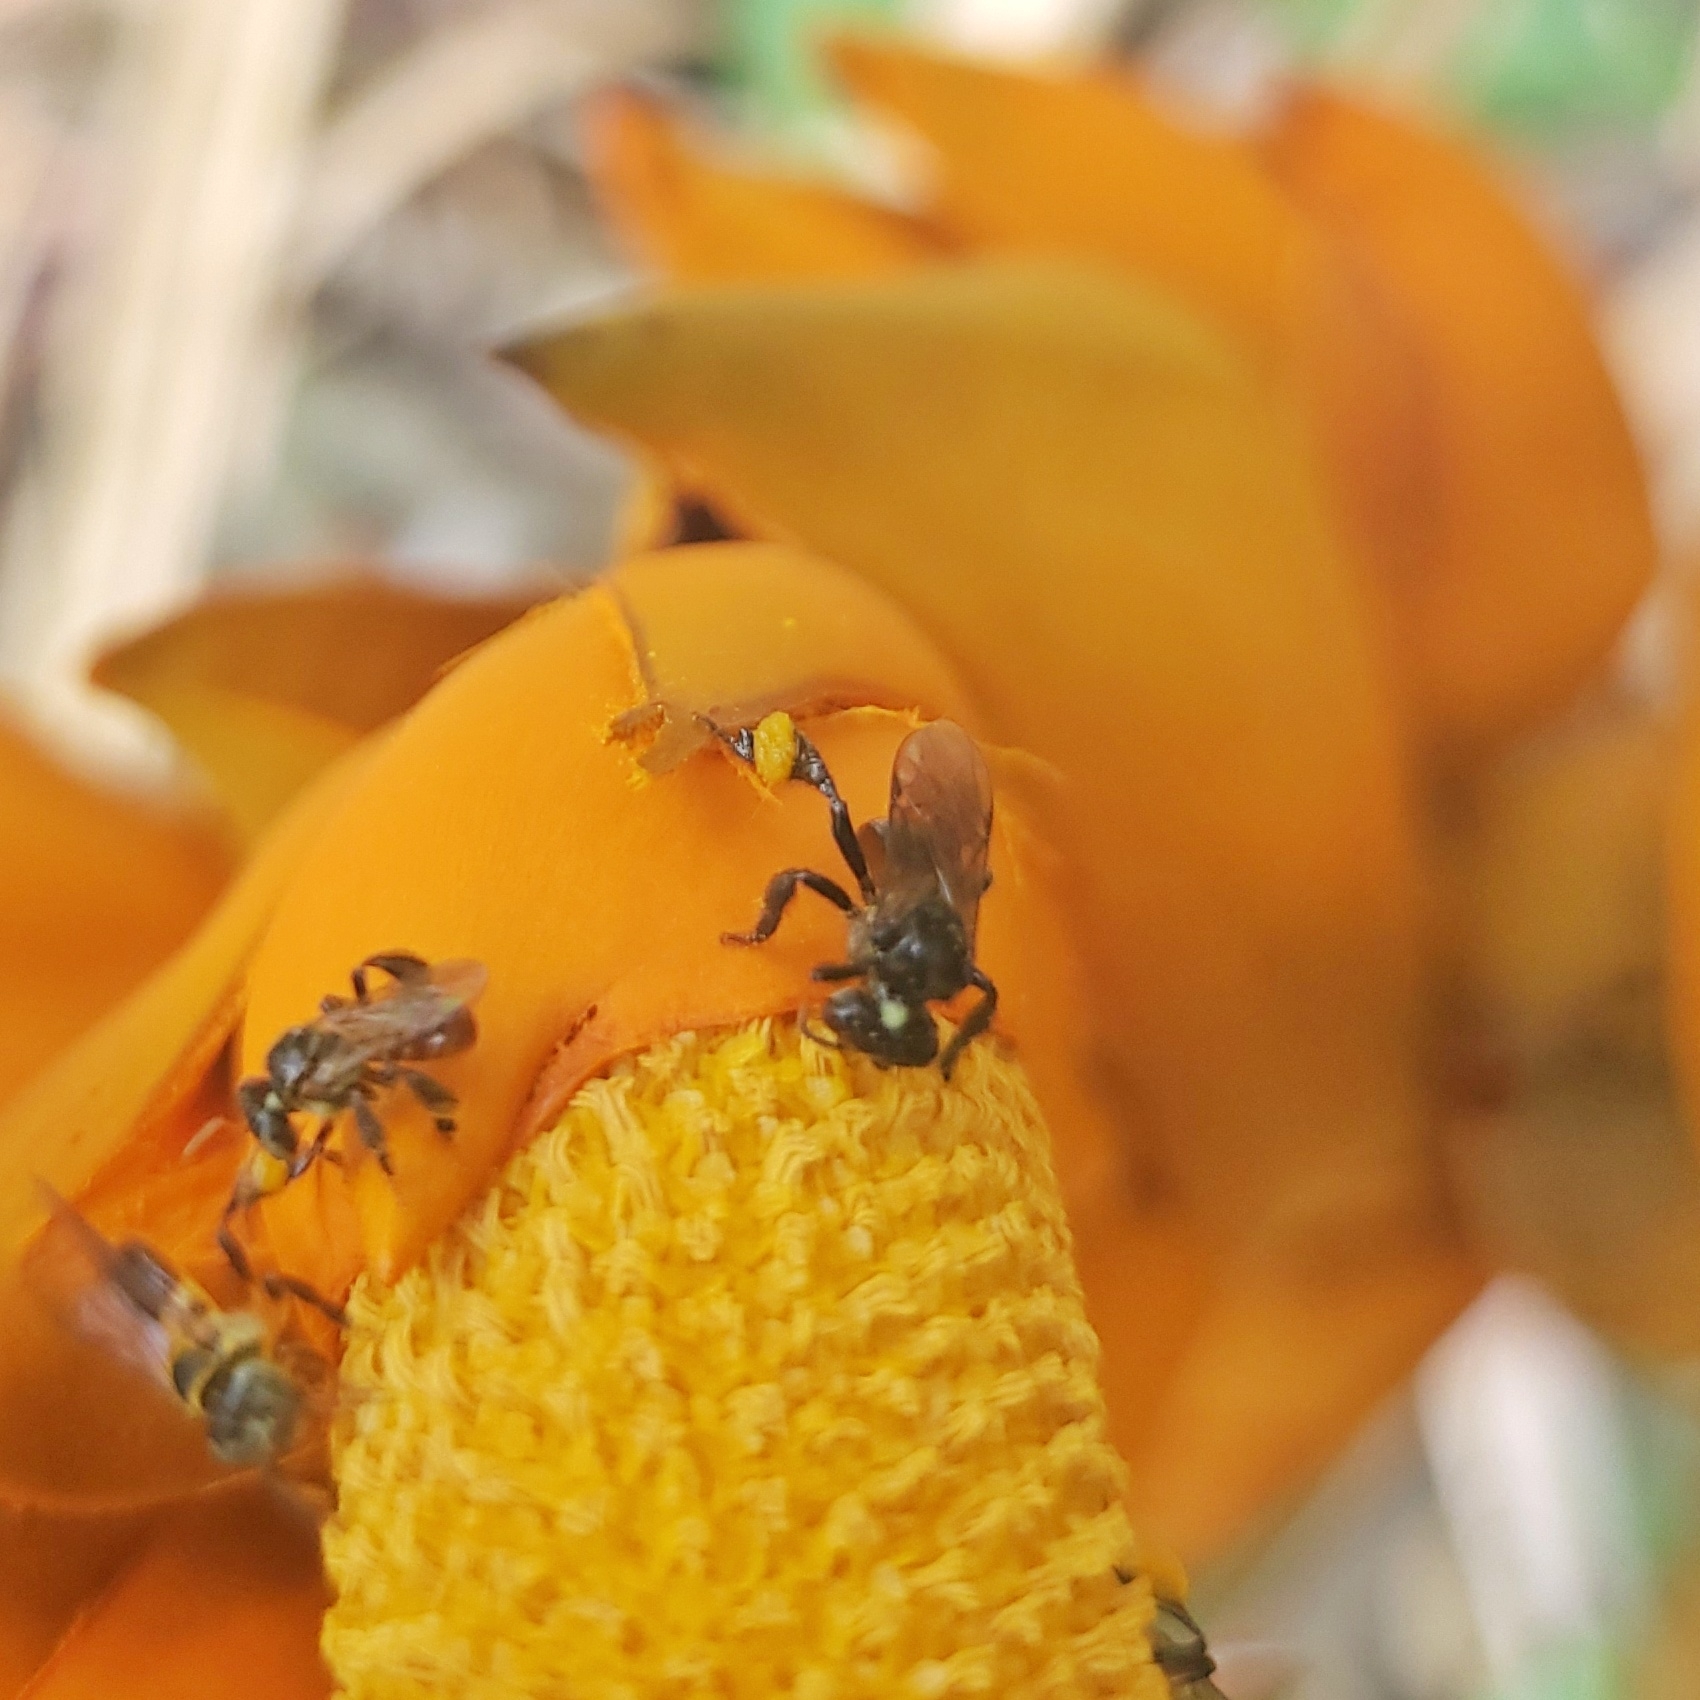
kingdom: Animalia
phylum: Arthropoda
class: Insecta
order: Hymenoptera
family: Apidae
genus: Lepidotrigona
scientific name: Lepidotrigona terminata
